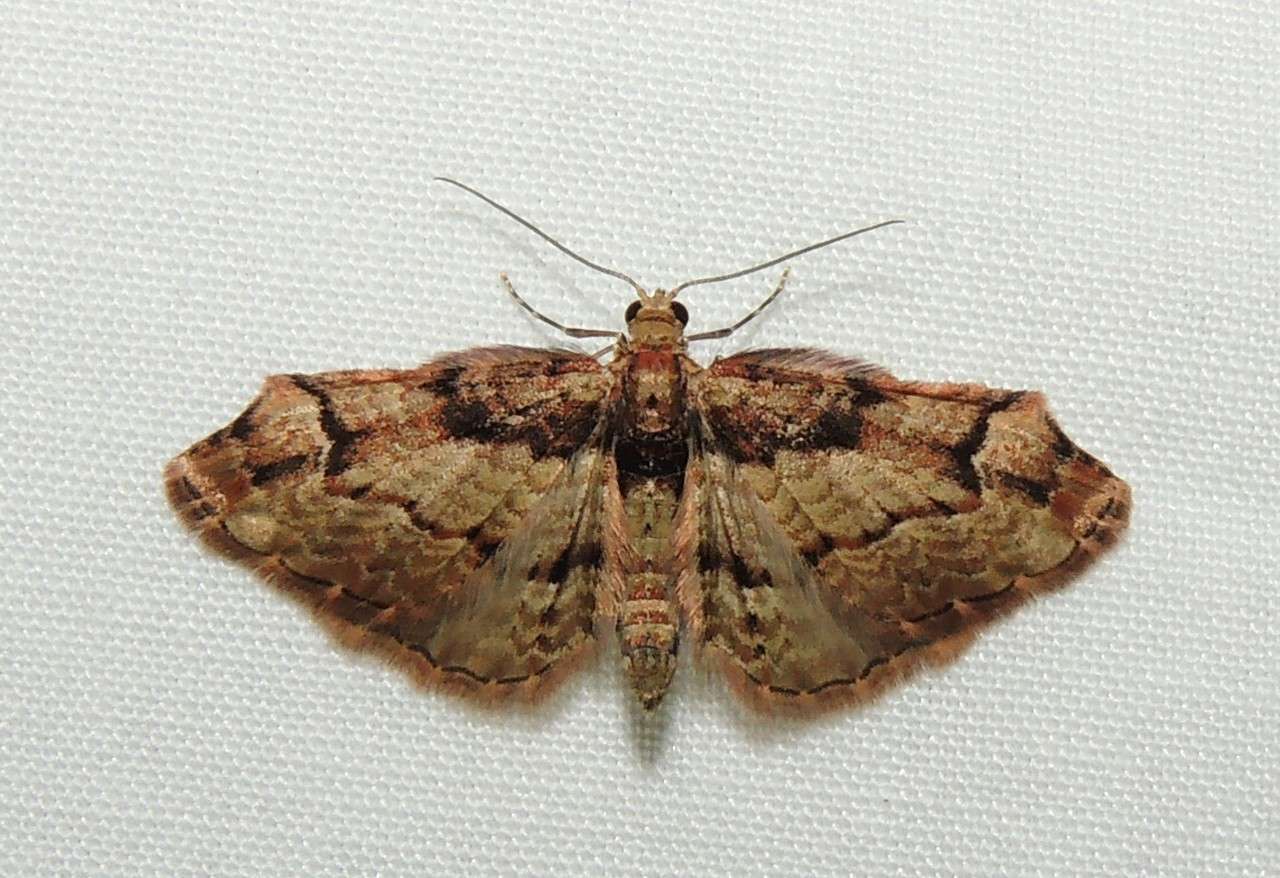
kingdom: Animalia
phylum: Arthropoda
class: Insecta
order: Lepidoptera
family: Geometridae
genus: Chloroclystis
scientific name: Chloroclystis approximata
